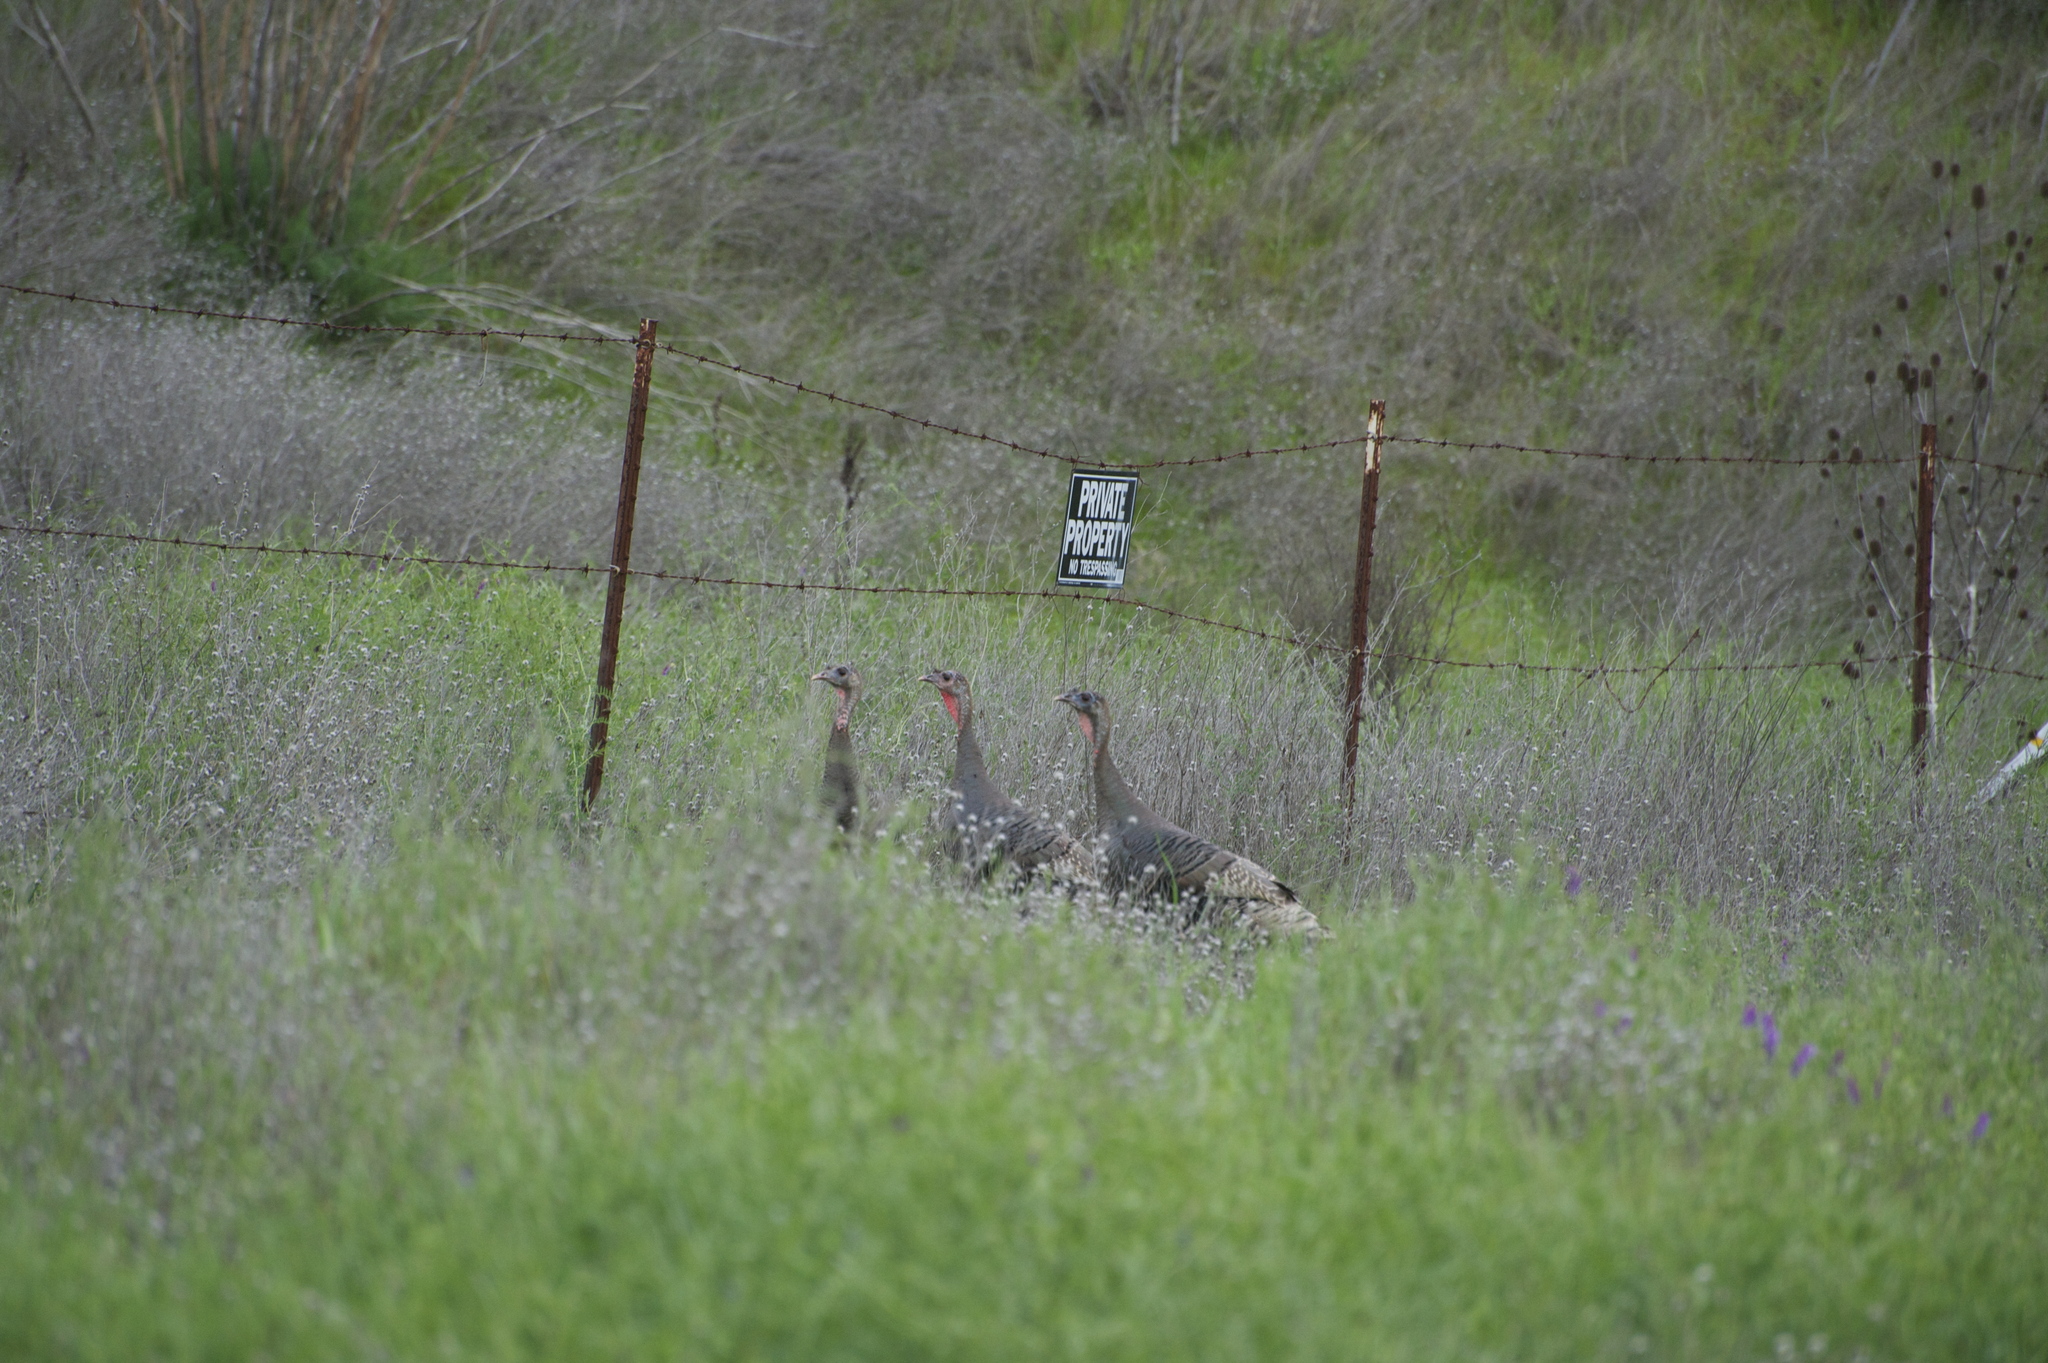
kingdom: Animalia
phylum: Chordata
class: Aves
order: Galliformes
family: Phasianidae
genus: Meleagris
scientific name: Meleagris gallopavo
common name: Wild turkey
